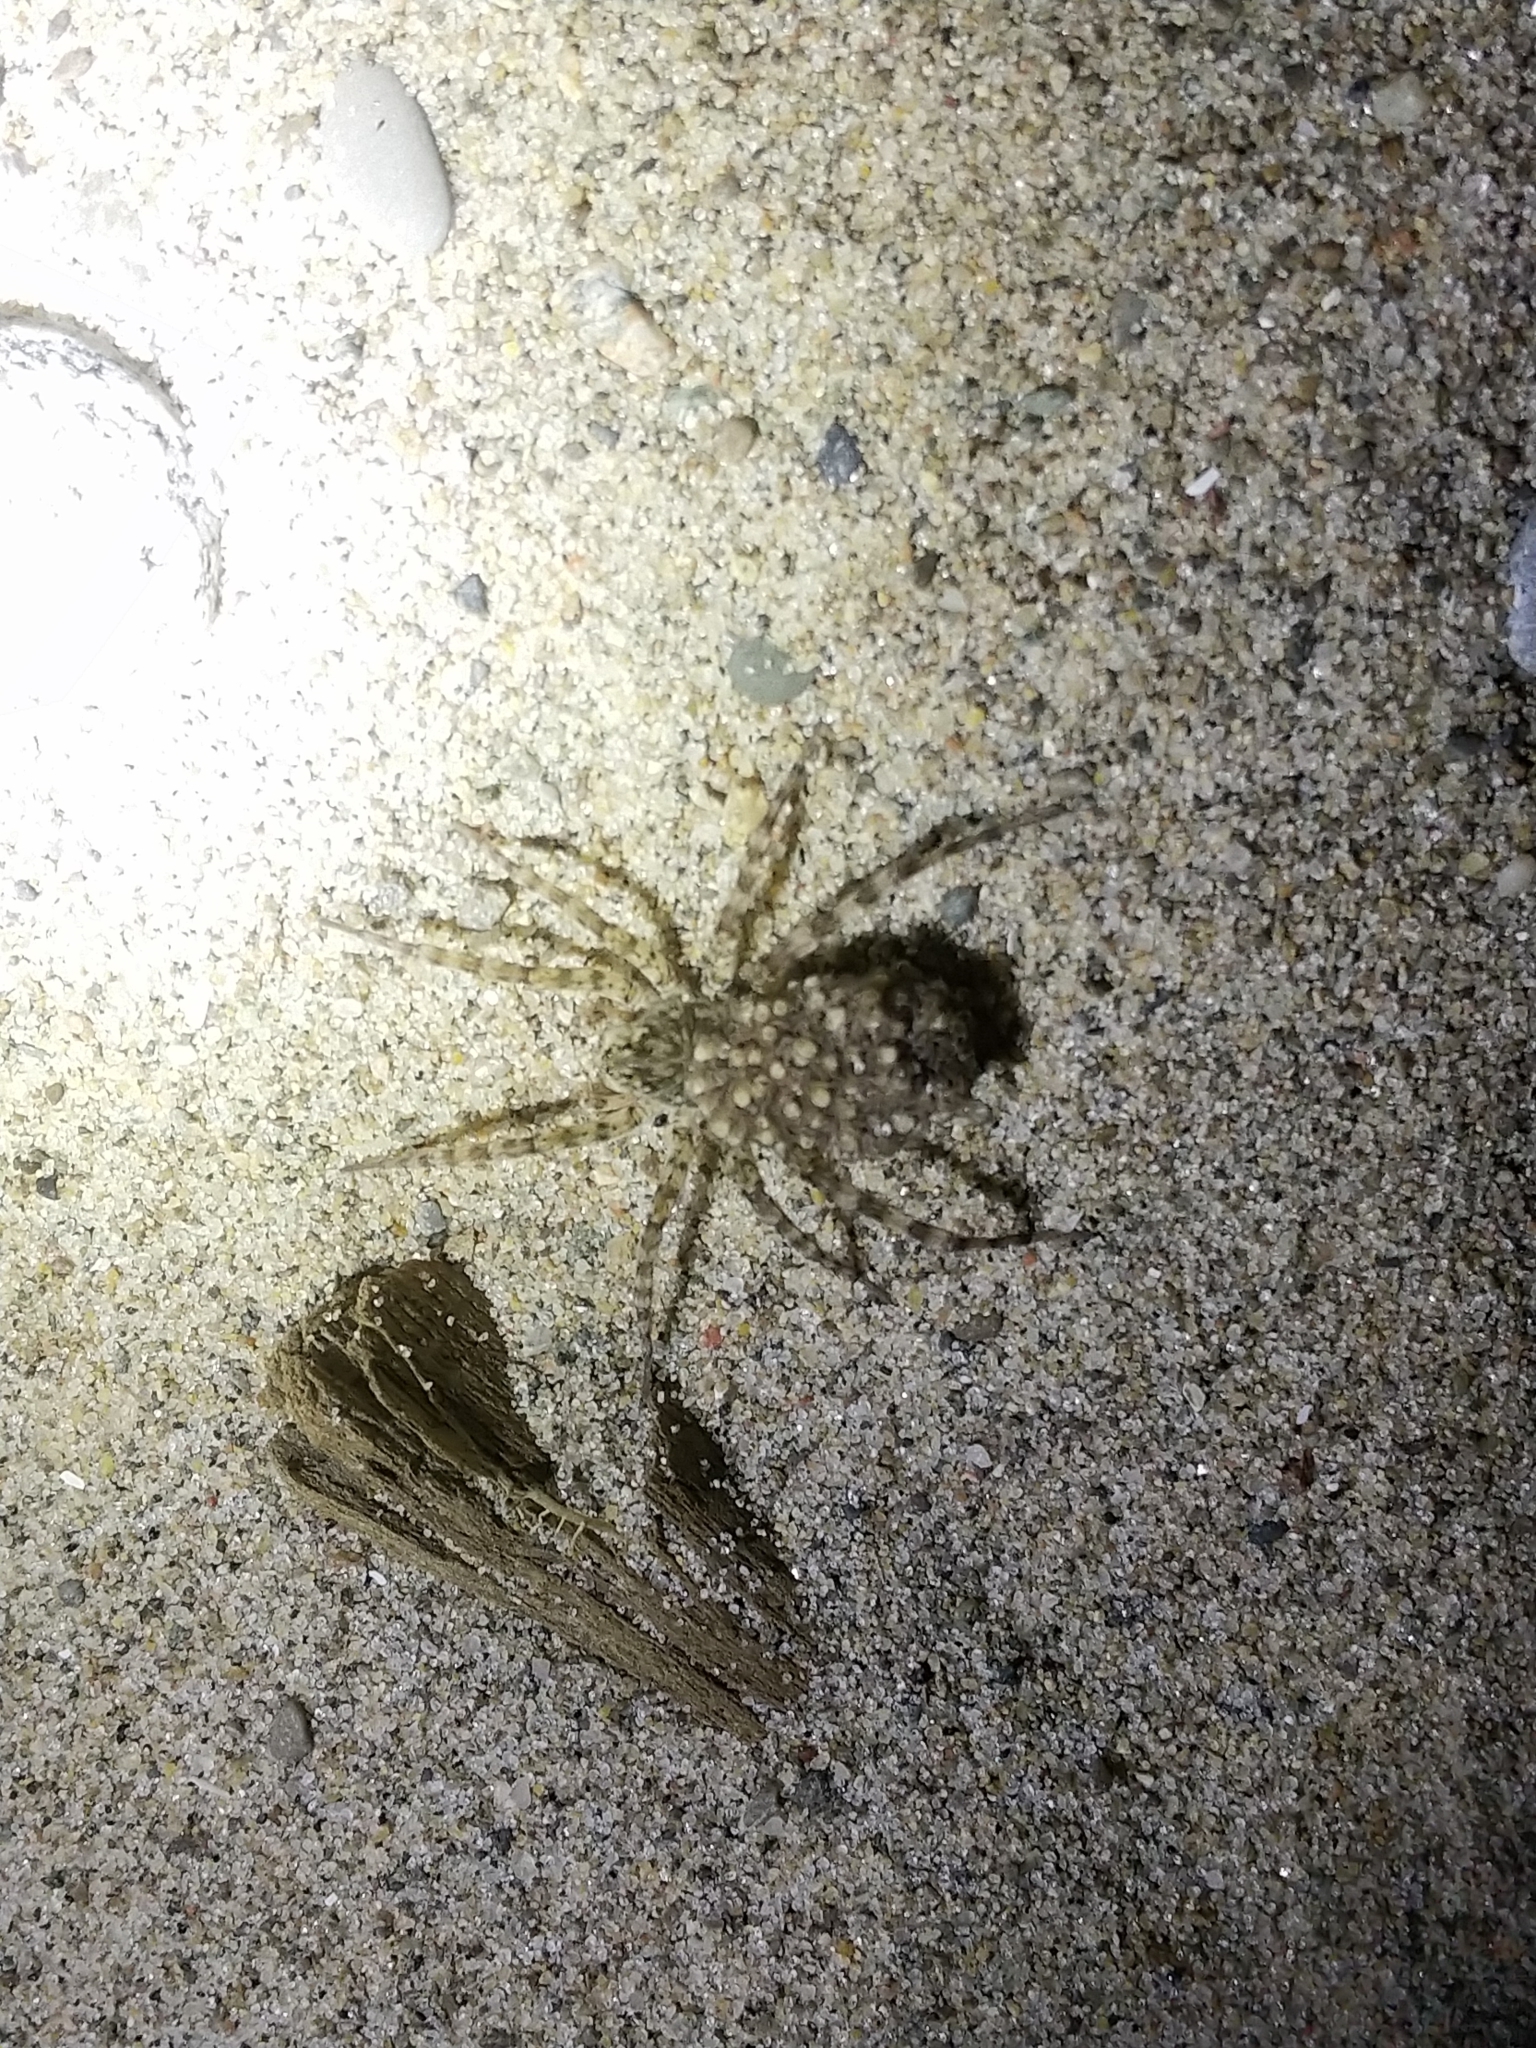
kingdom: Animalia
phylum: Arthropoda
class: Arachnida
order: Araneae
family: Lycosidae
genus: Arctosa
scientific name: Arctosa littoralis
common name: Wolf spiders
